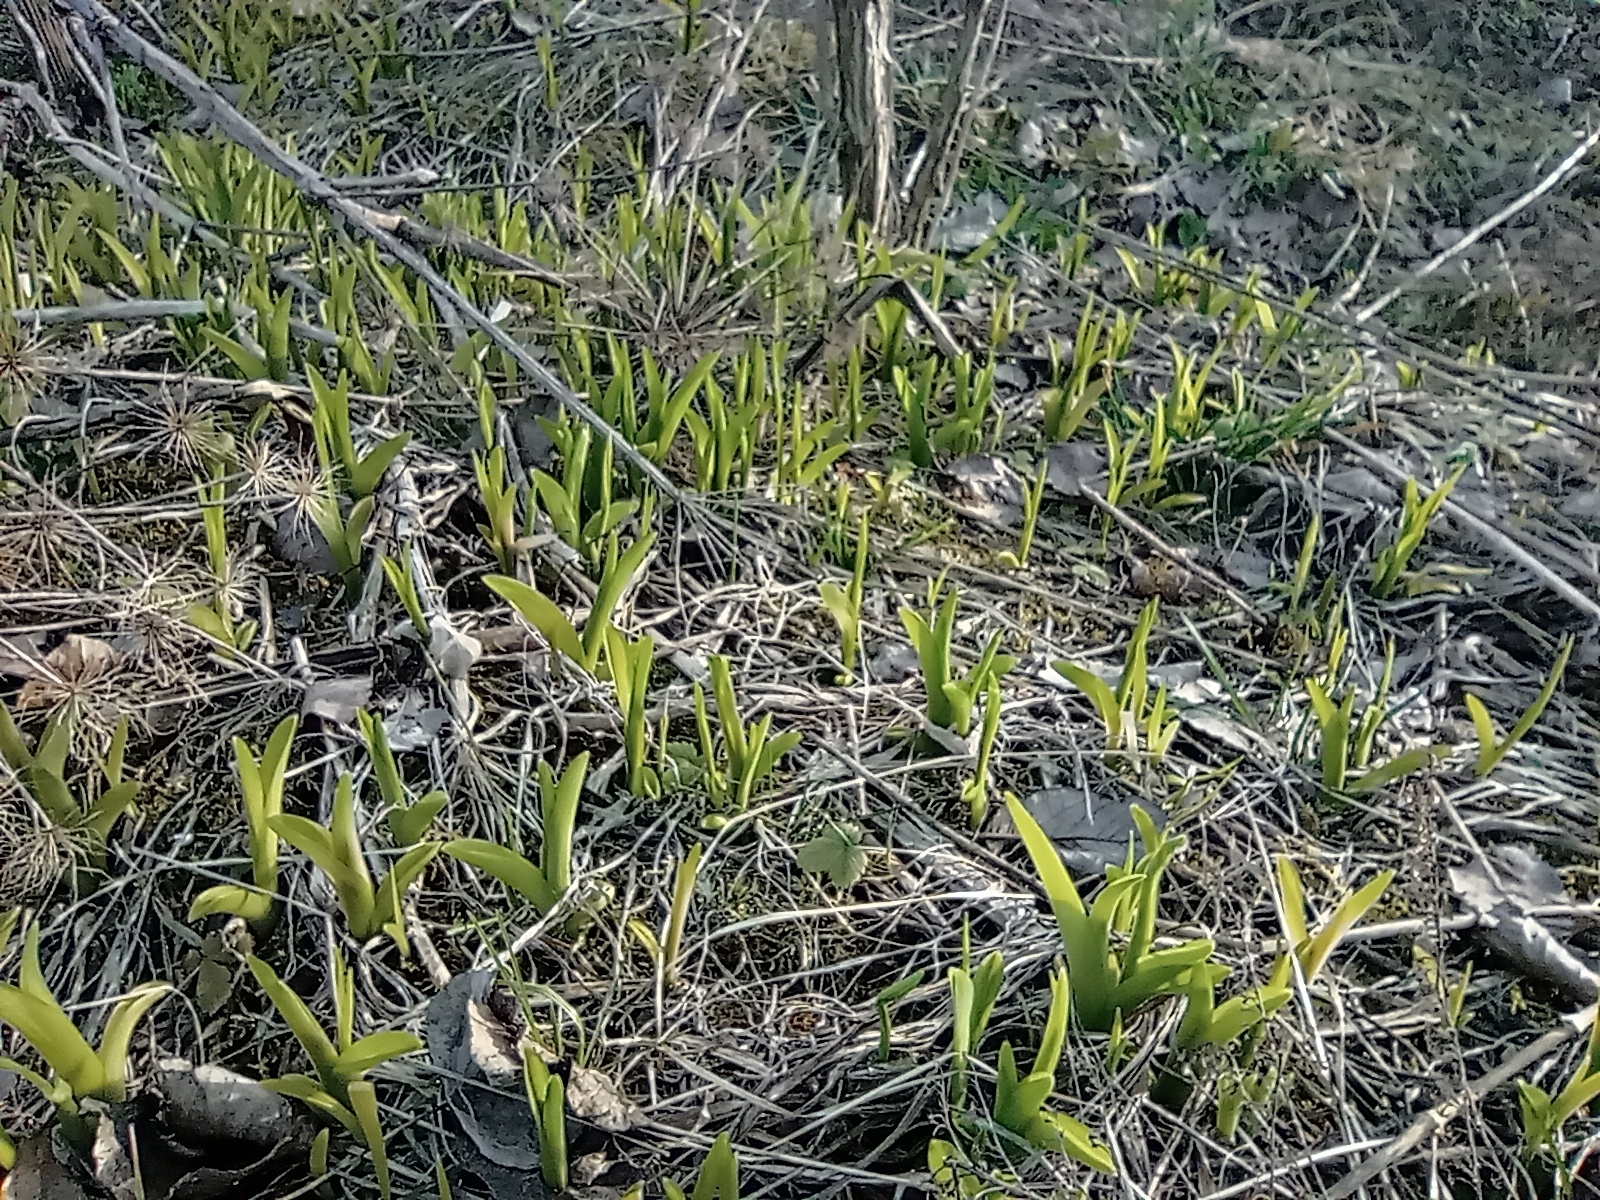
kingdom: Plantae
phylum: Tracheophyta
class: Liliopsida
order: Asparagales
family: Asphodelaceae
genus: Hemerocallis
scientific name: Hemerocallis fulva
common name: Orange day-lily
